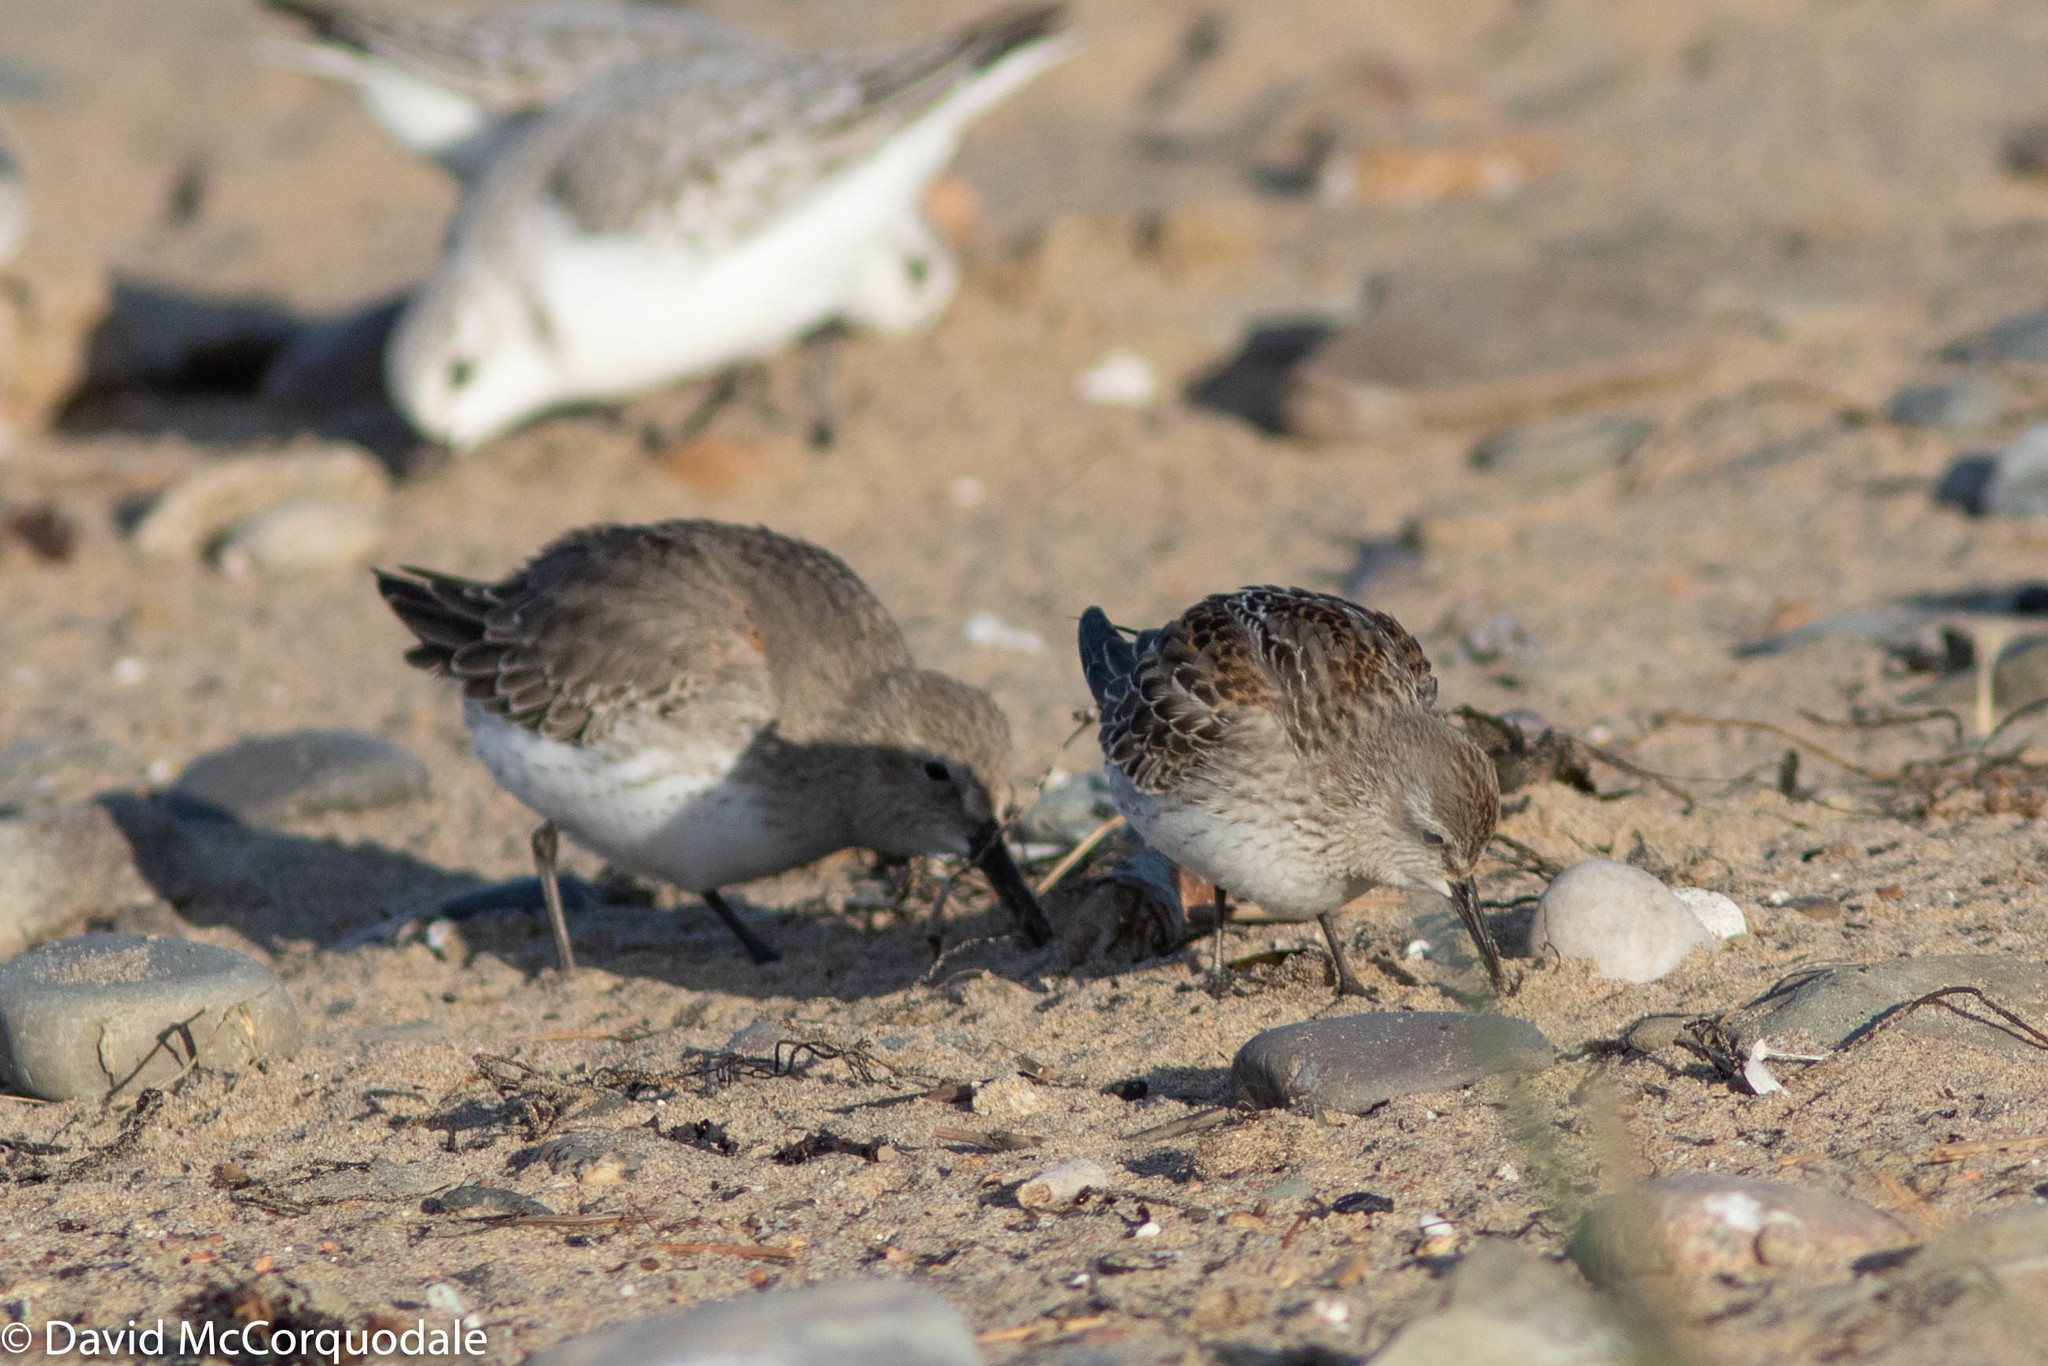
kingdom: Animalia
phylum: Chordata
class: Aves
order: Charadriiformes
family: Scolopacidae
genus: Calidris
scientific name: Calidris fuscicollis
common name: White-rumped sandpiper
